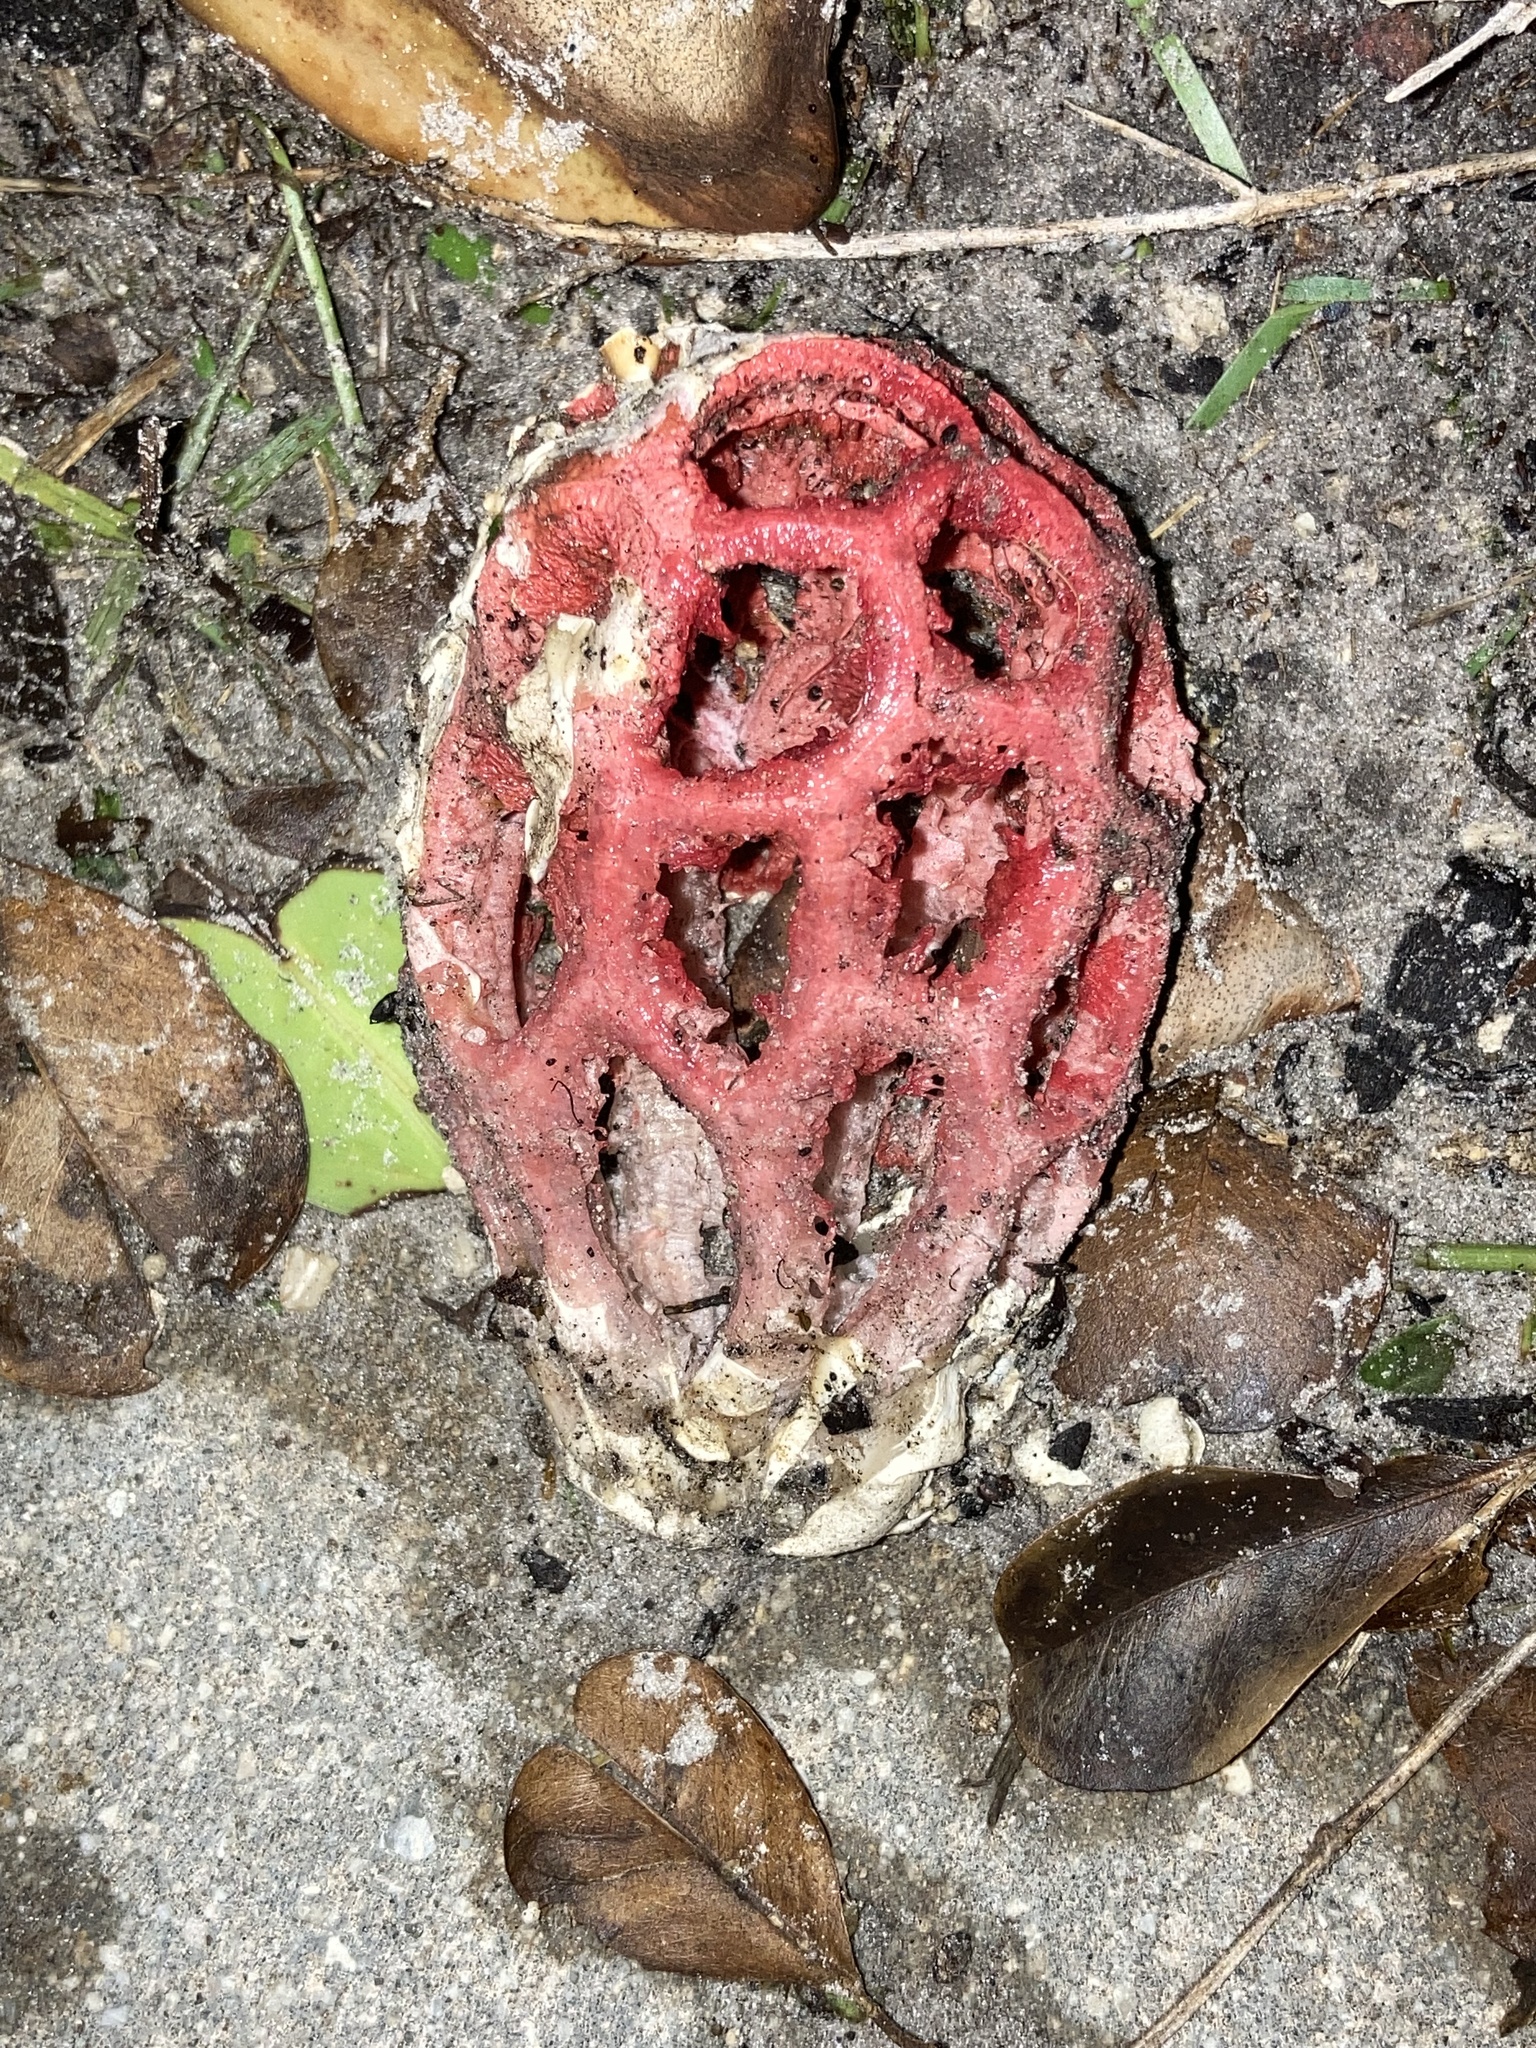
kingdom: Fungi
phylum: Basidiomycota
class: Agaricomycetes
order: Phallales
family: Phallaceae
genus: Clathrus
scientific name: Clathrus crispatus
